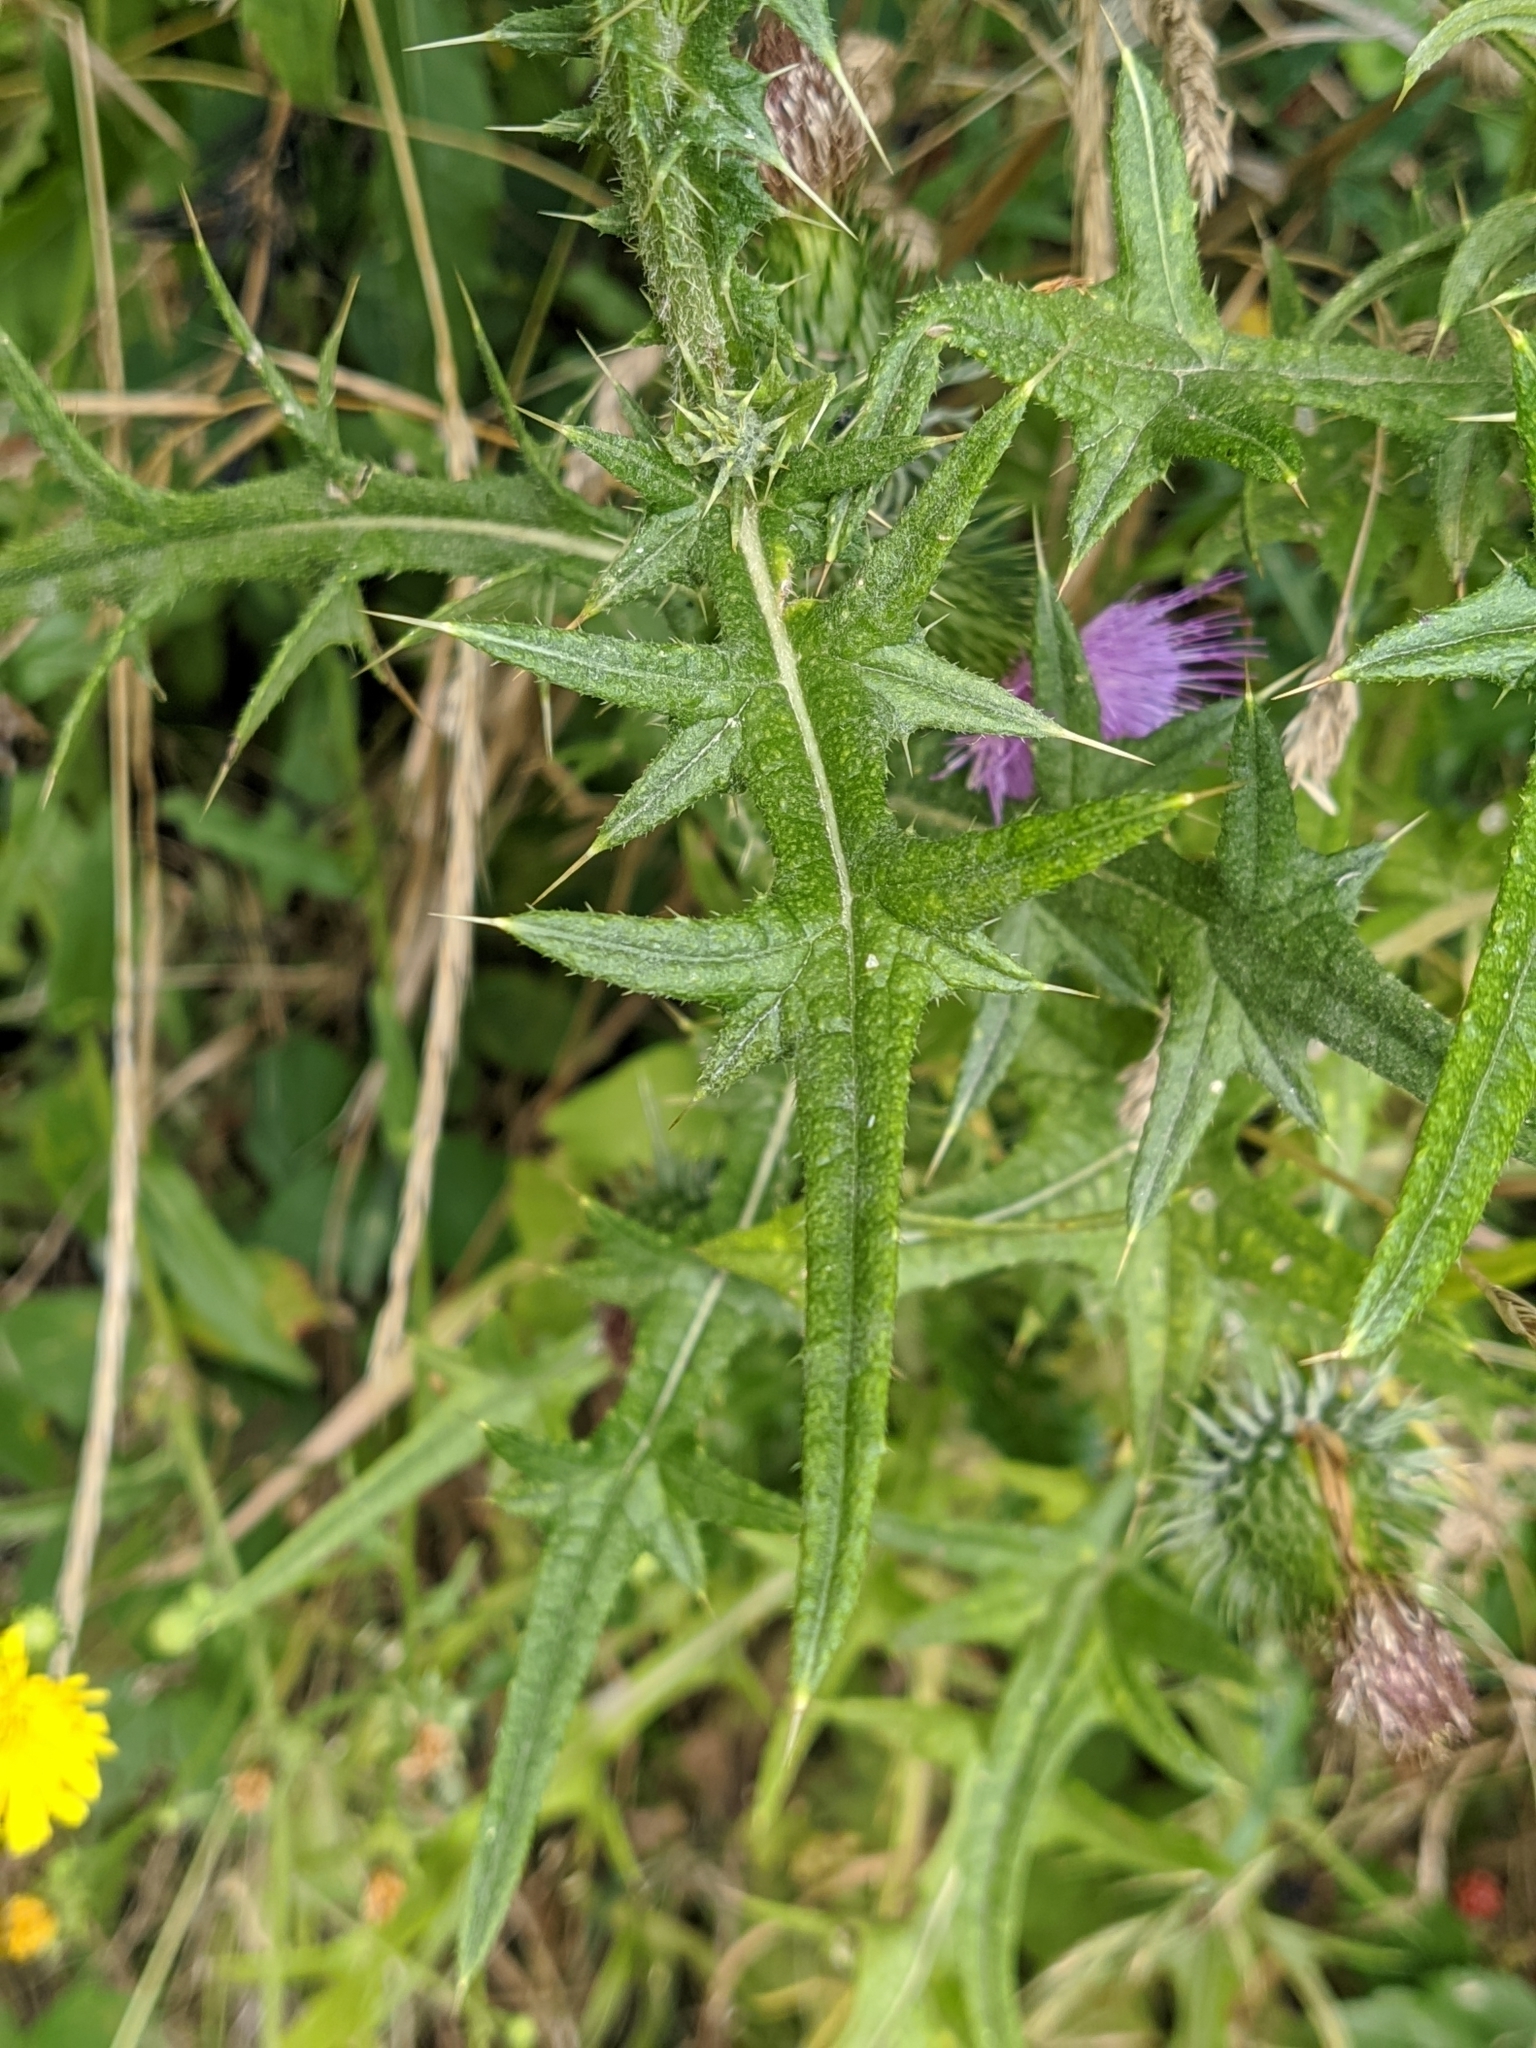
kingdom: Plantae
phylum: Tracheophyta
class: Magnoliopsida
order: Asterales
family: Asteraceae
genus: Cirsium
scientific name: Cirsium vulgare
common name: Bull thistle
